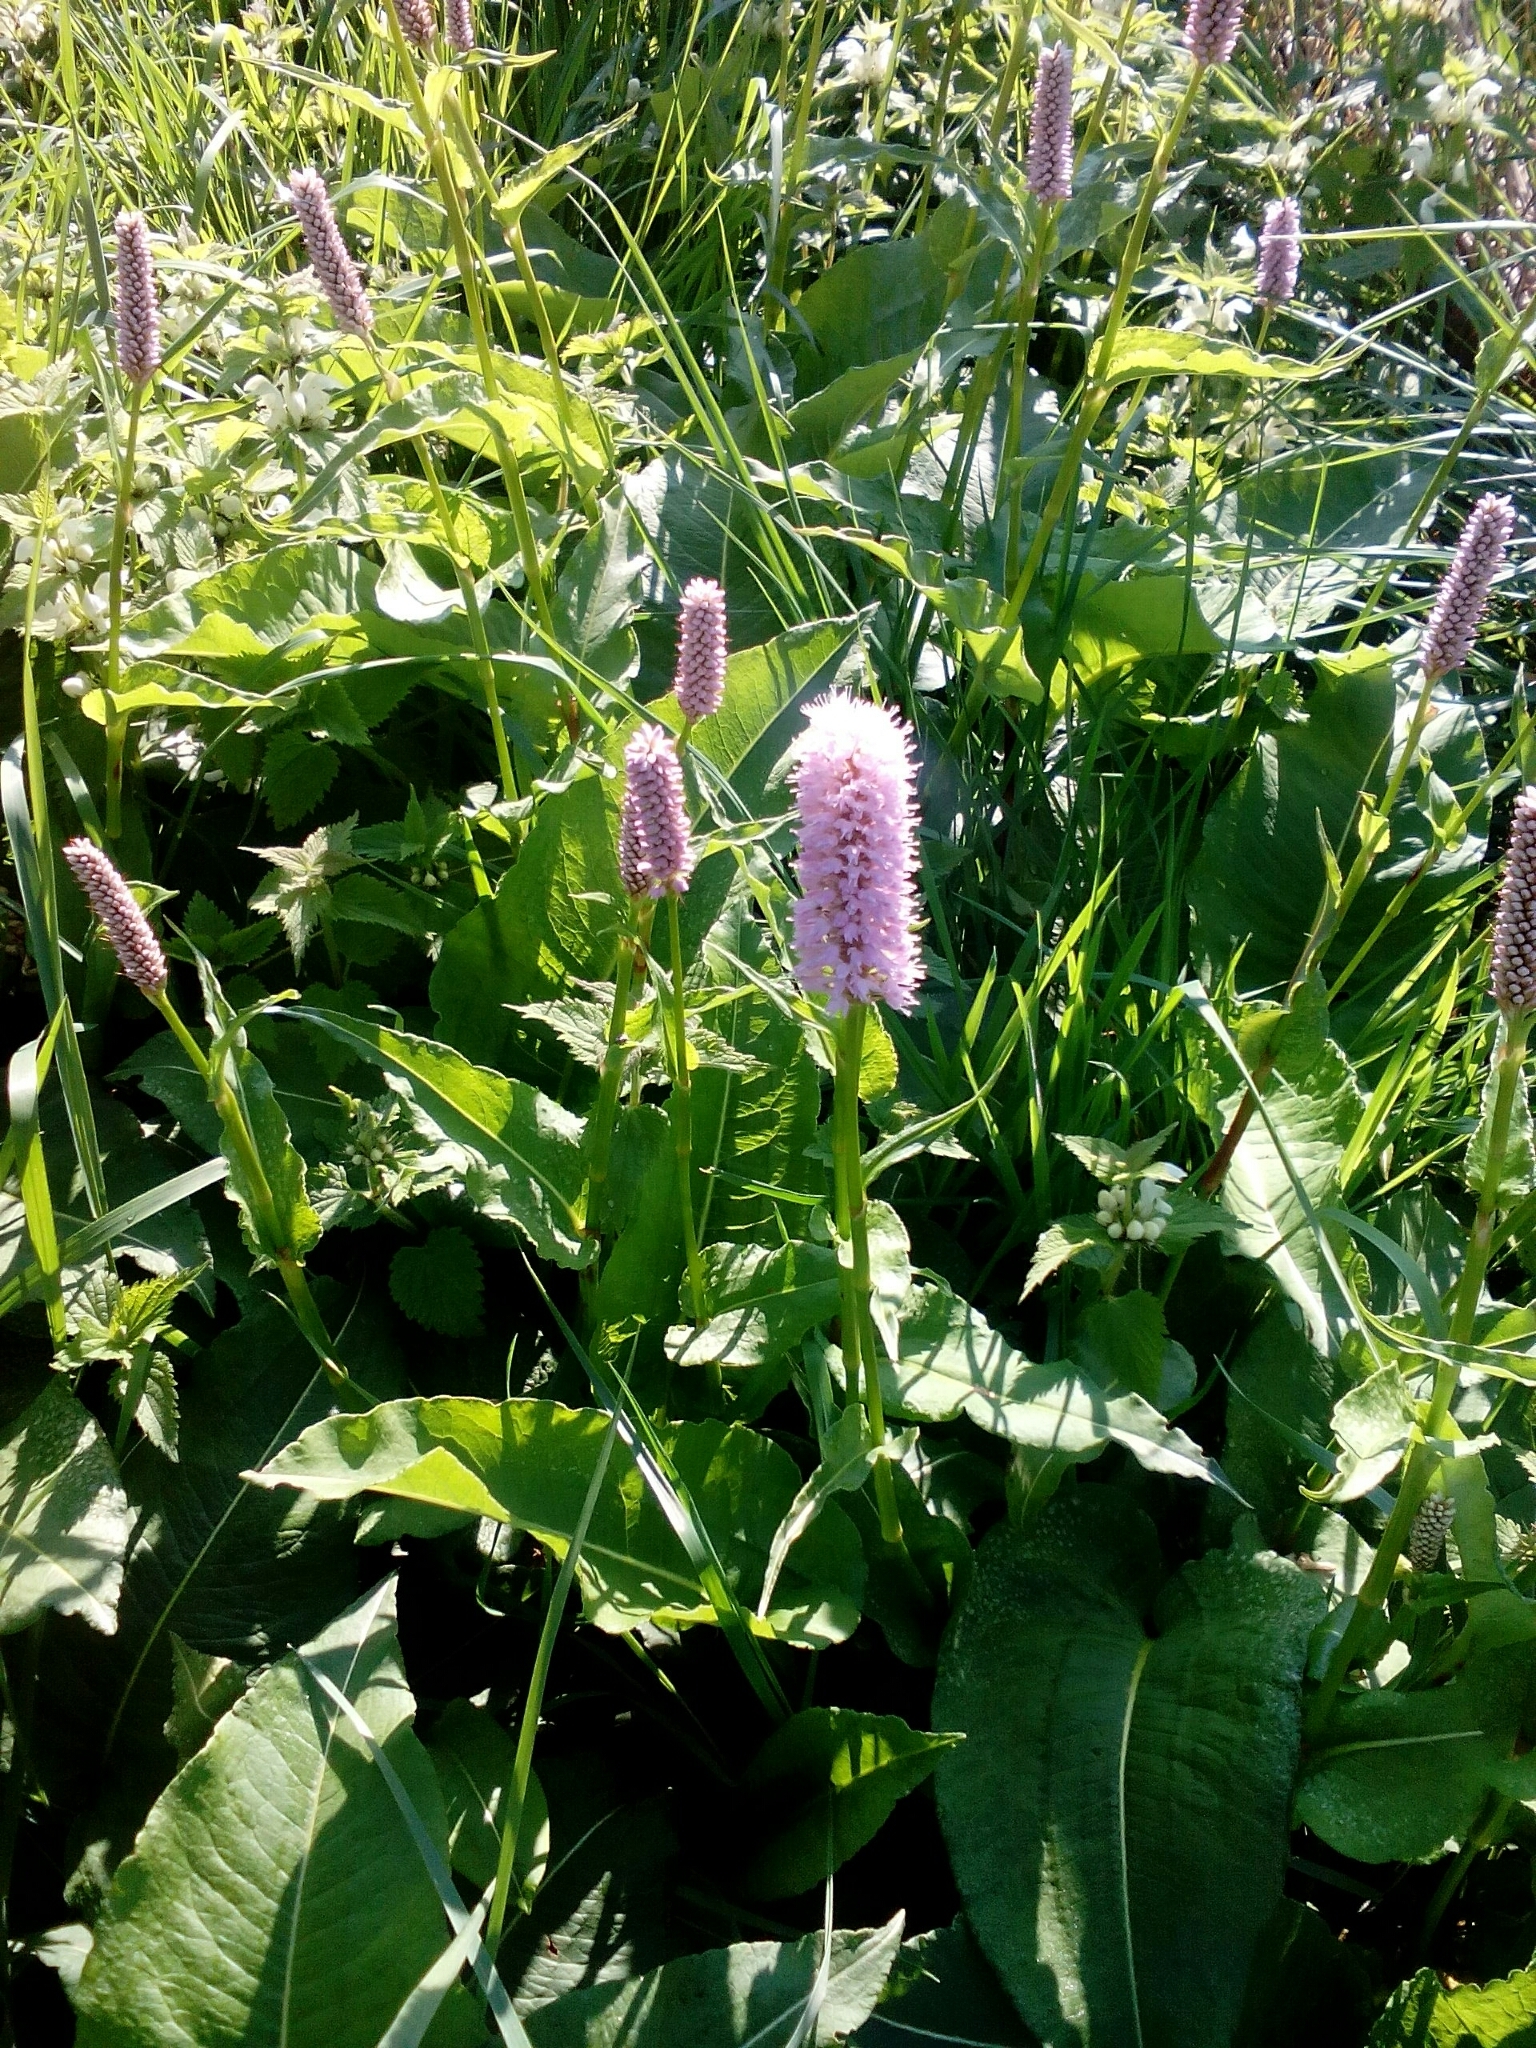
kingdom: Plantae
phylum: Tracheophyta
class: Magnoliopsida
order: Caryophyllales
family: Polygonaceae
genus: Bistorta
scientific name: Bistorta officinalis
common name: Common bistort
